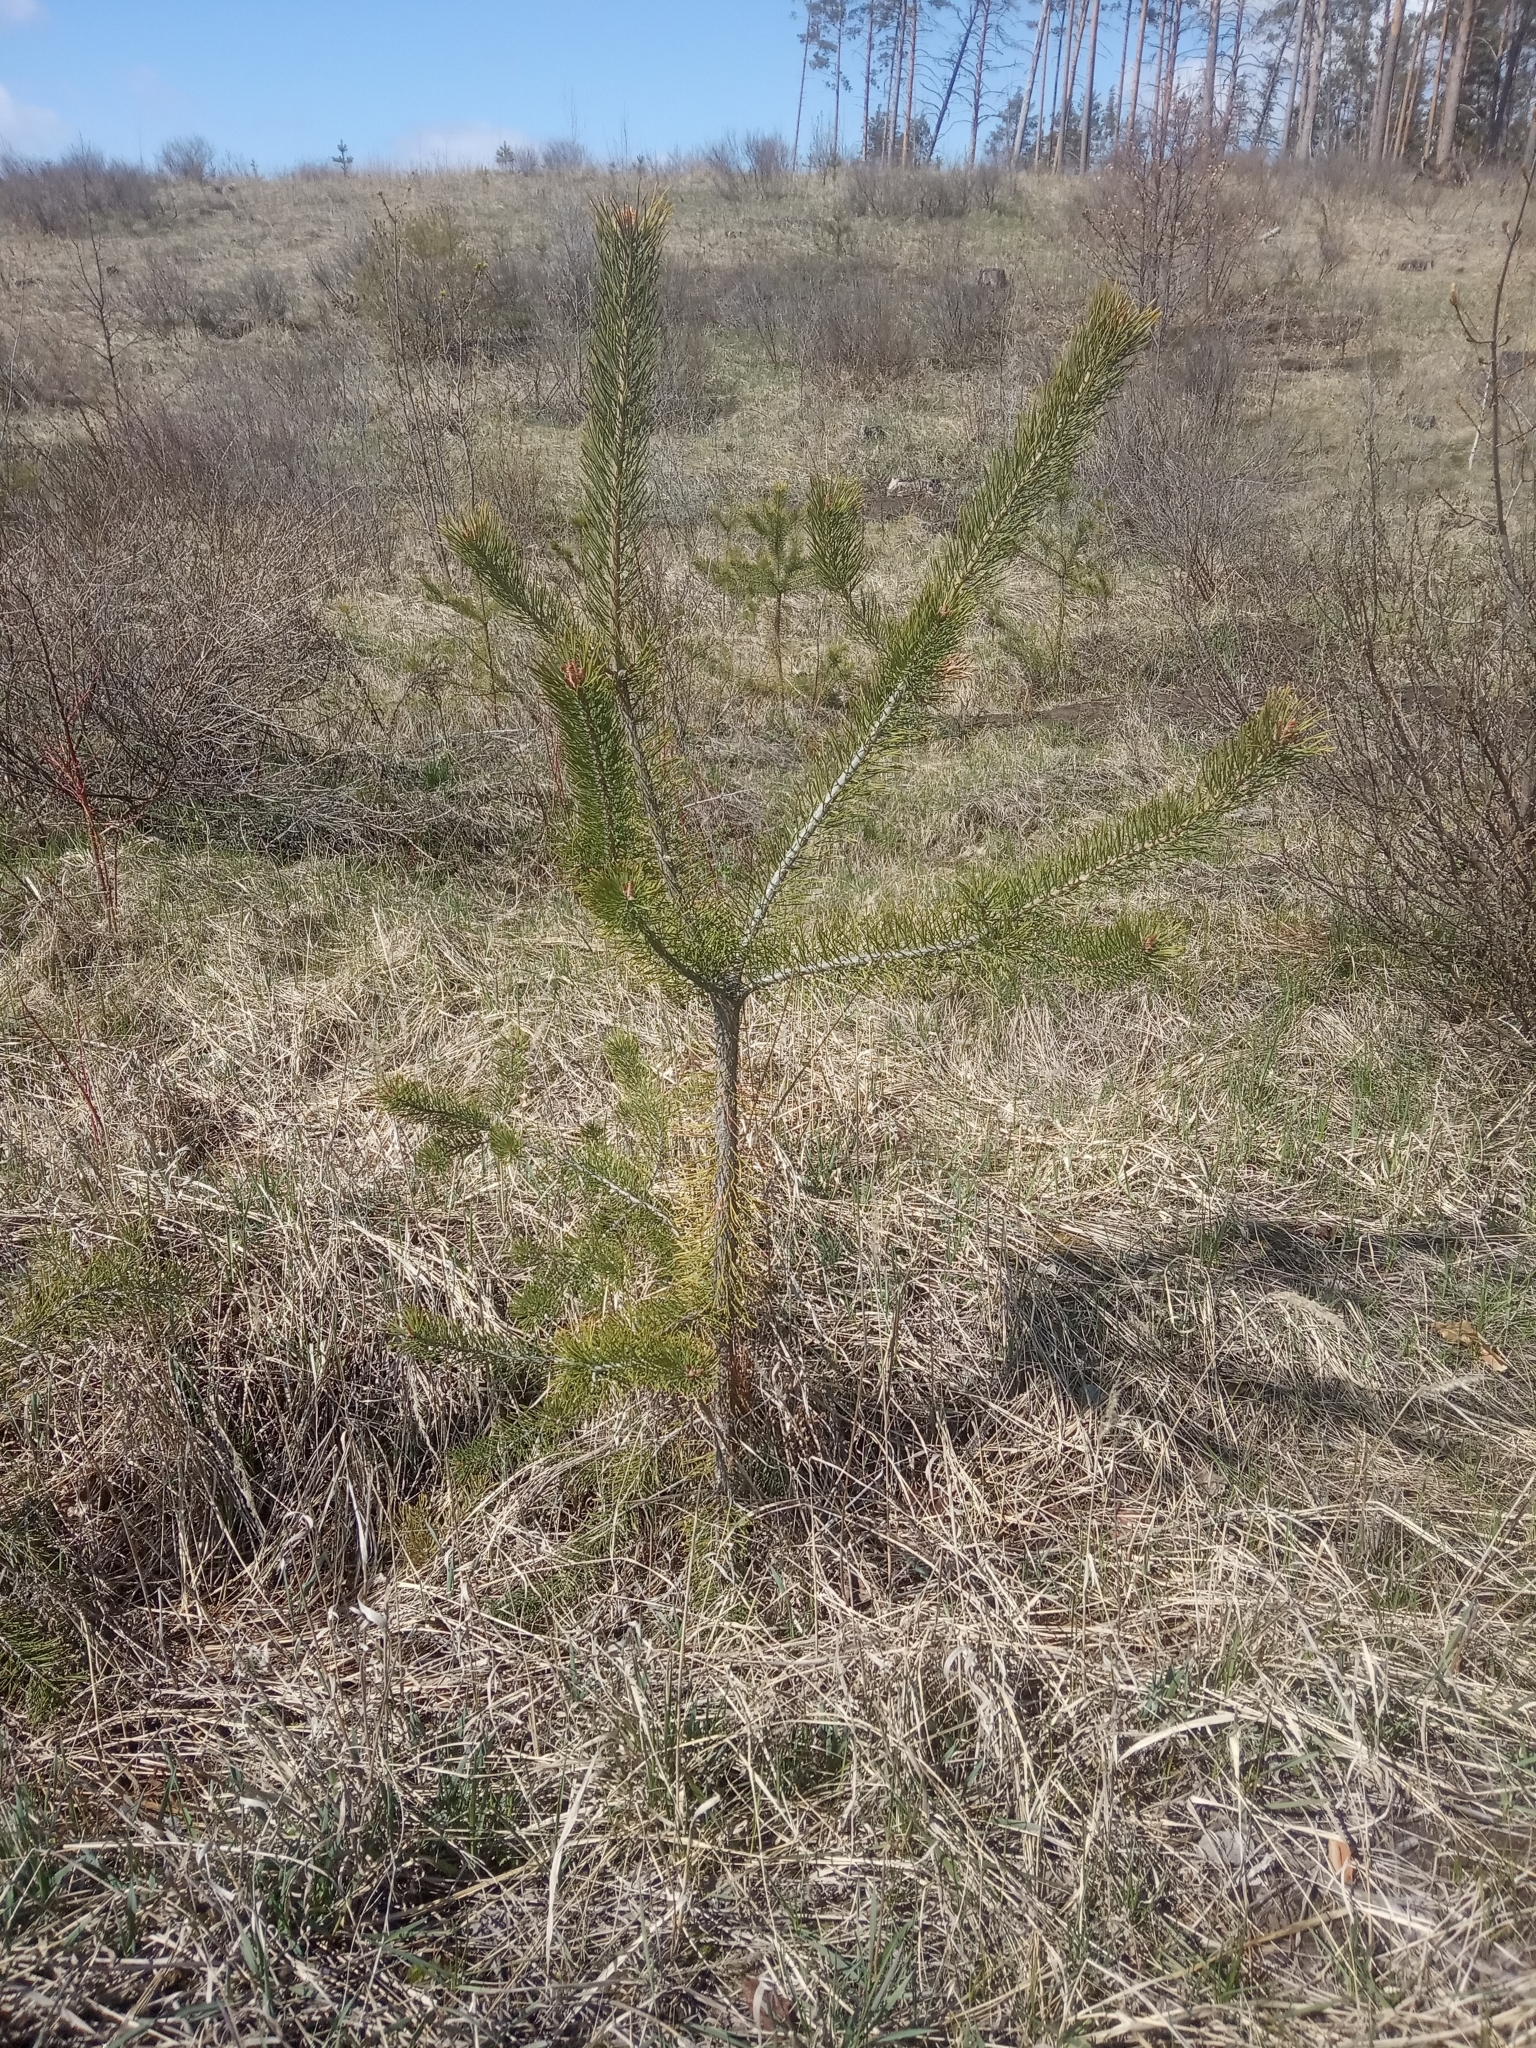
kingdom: Plantae
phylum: Tracheophyta
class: Pinopsida
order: Pinales
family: Pinaceae
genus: Pinus
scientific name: Pinus sylvestris
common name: Scots pine
